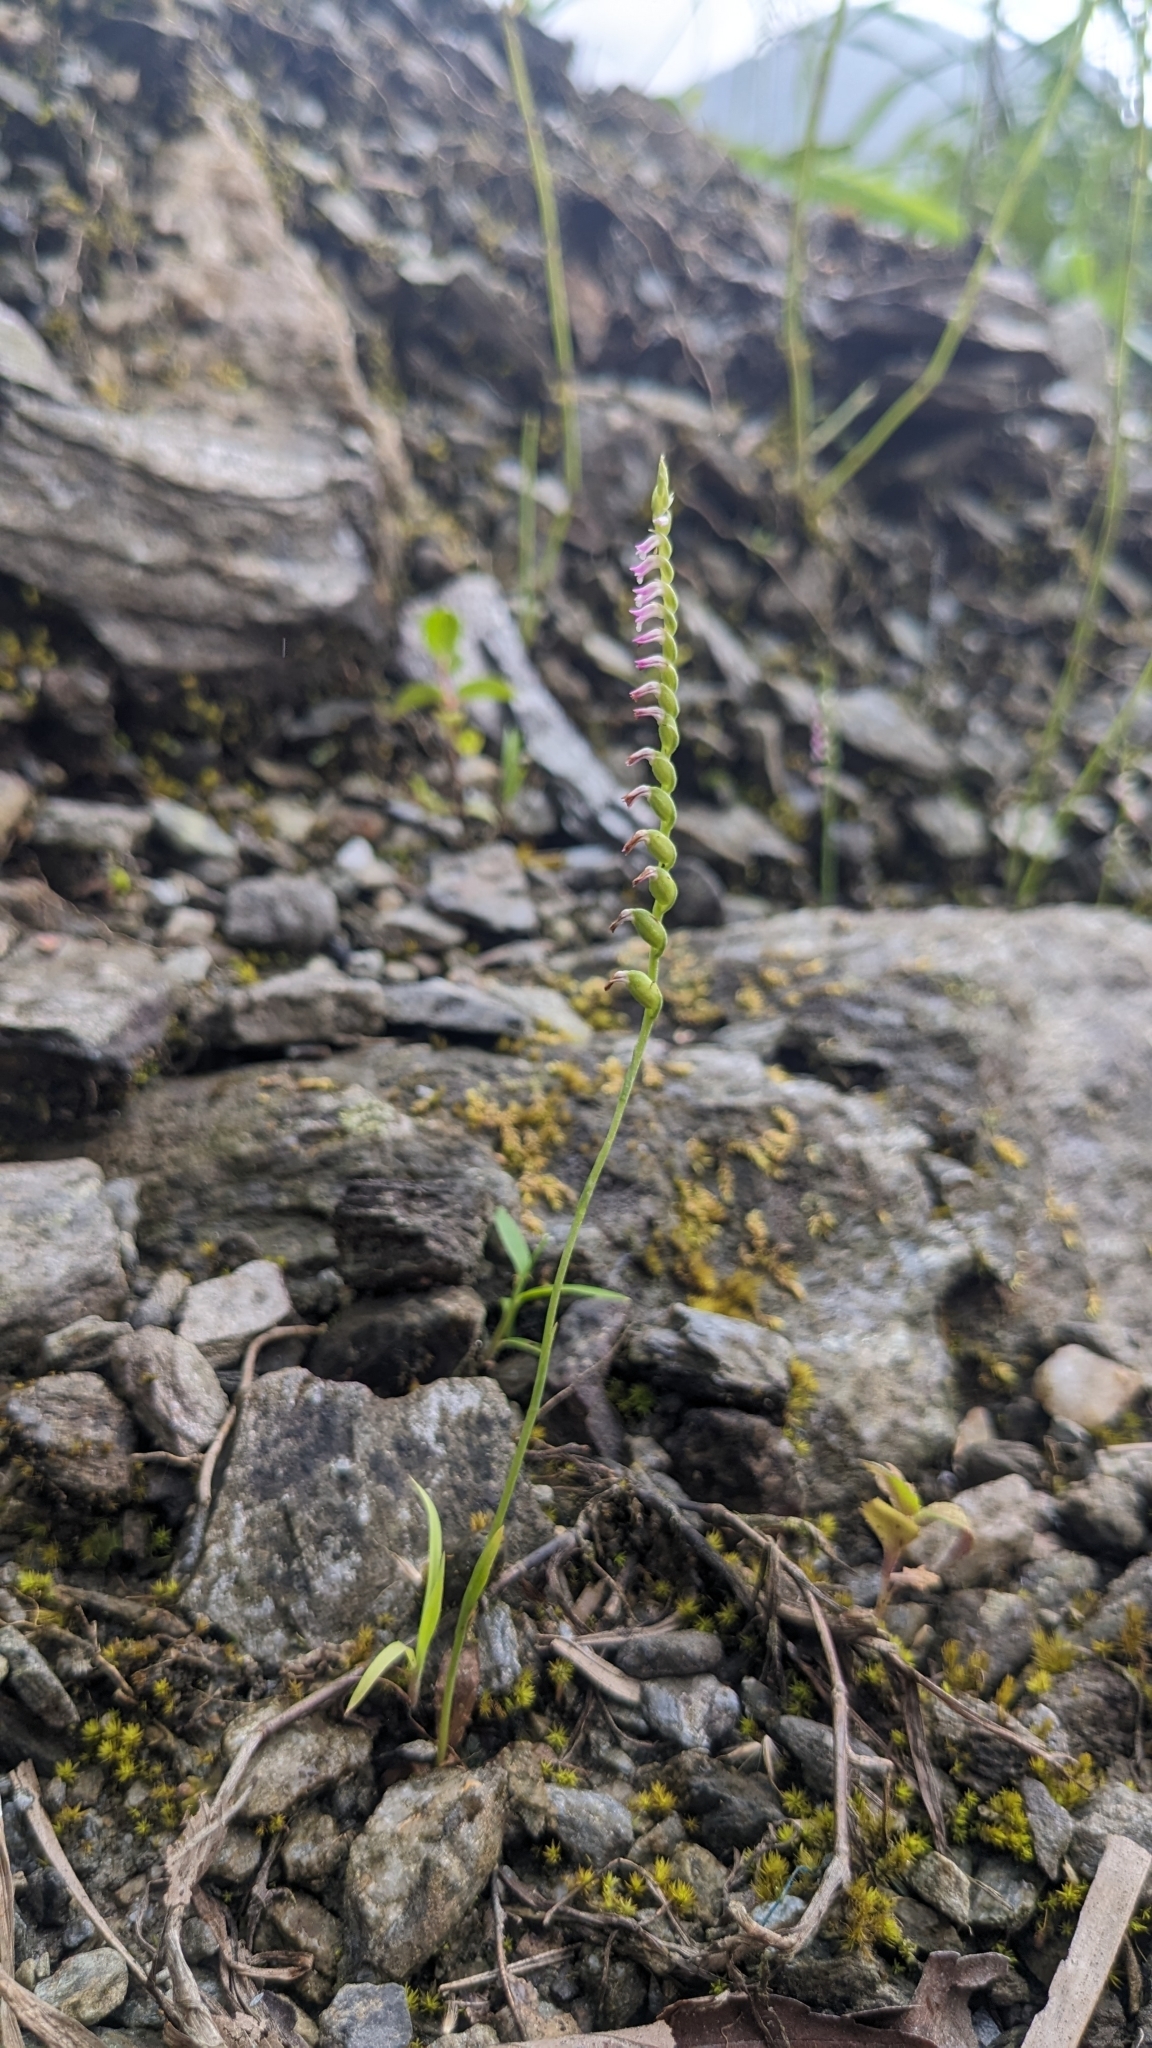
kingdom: Plantae
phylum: Tracheophyta
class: Liliopsida
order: Asparagales
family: Orchidaceae
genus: Spiranthes
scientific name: Spiranthes sinensis
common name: Chinese spiranthes
